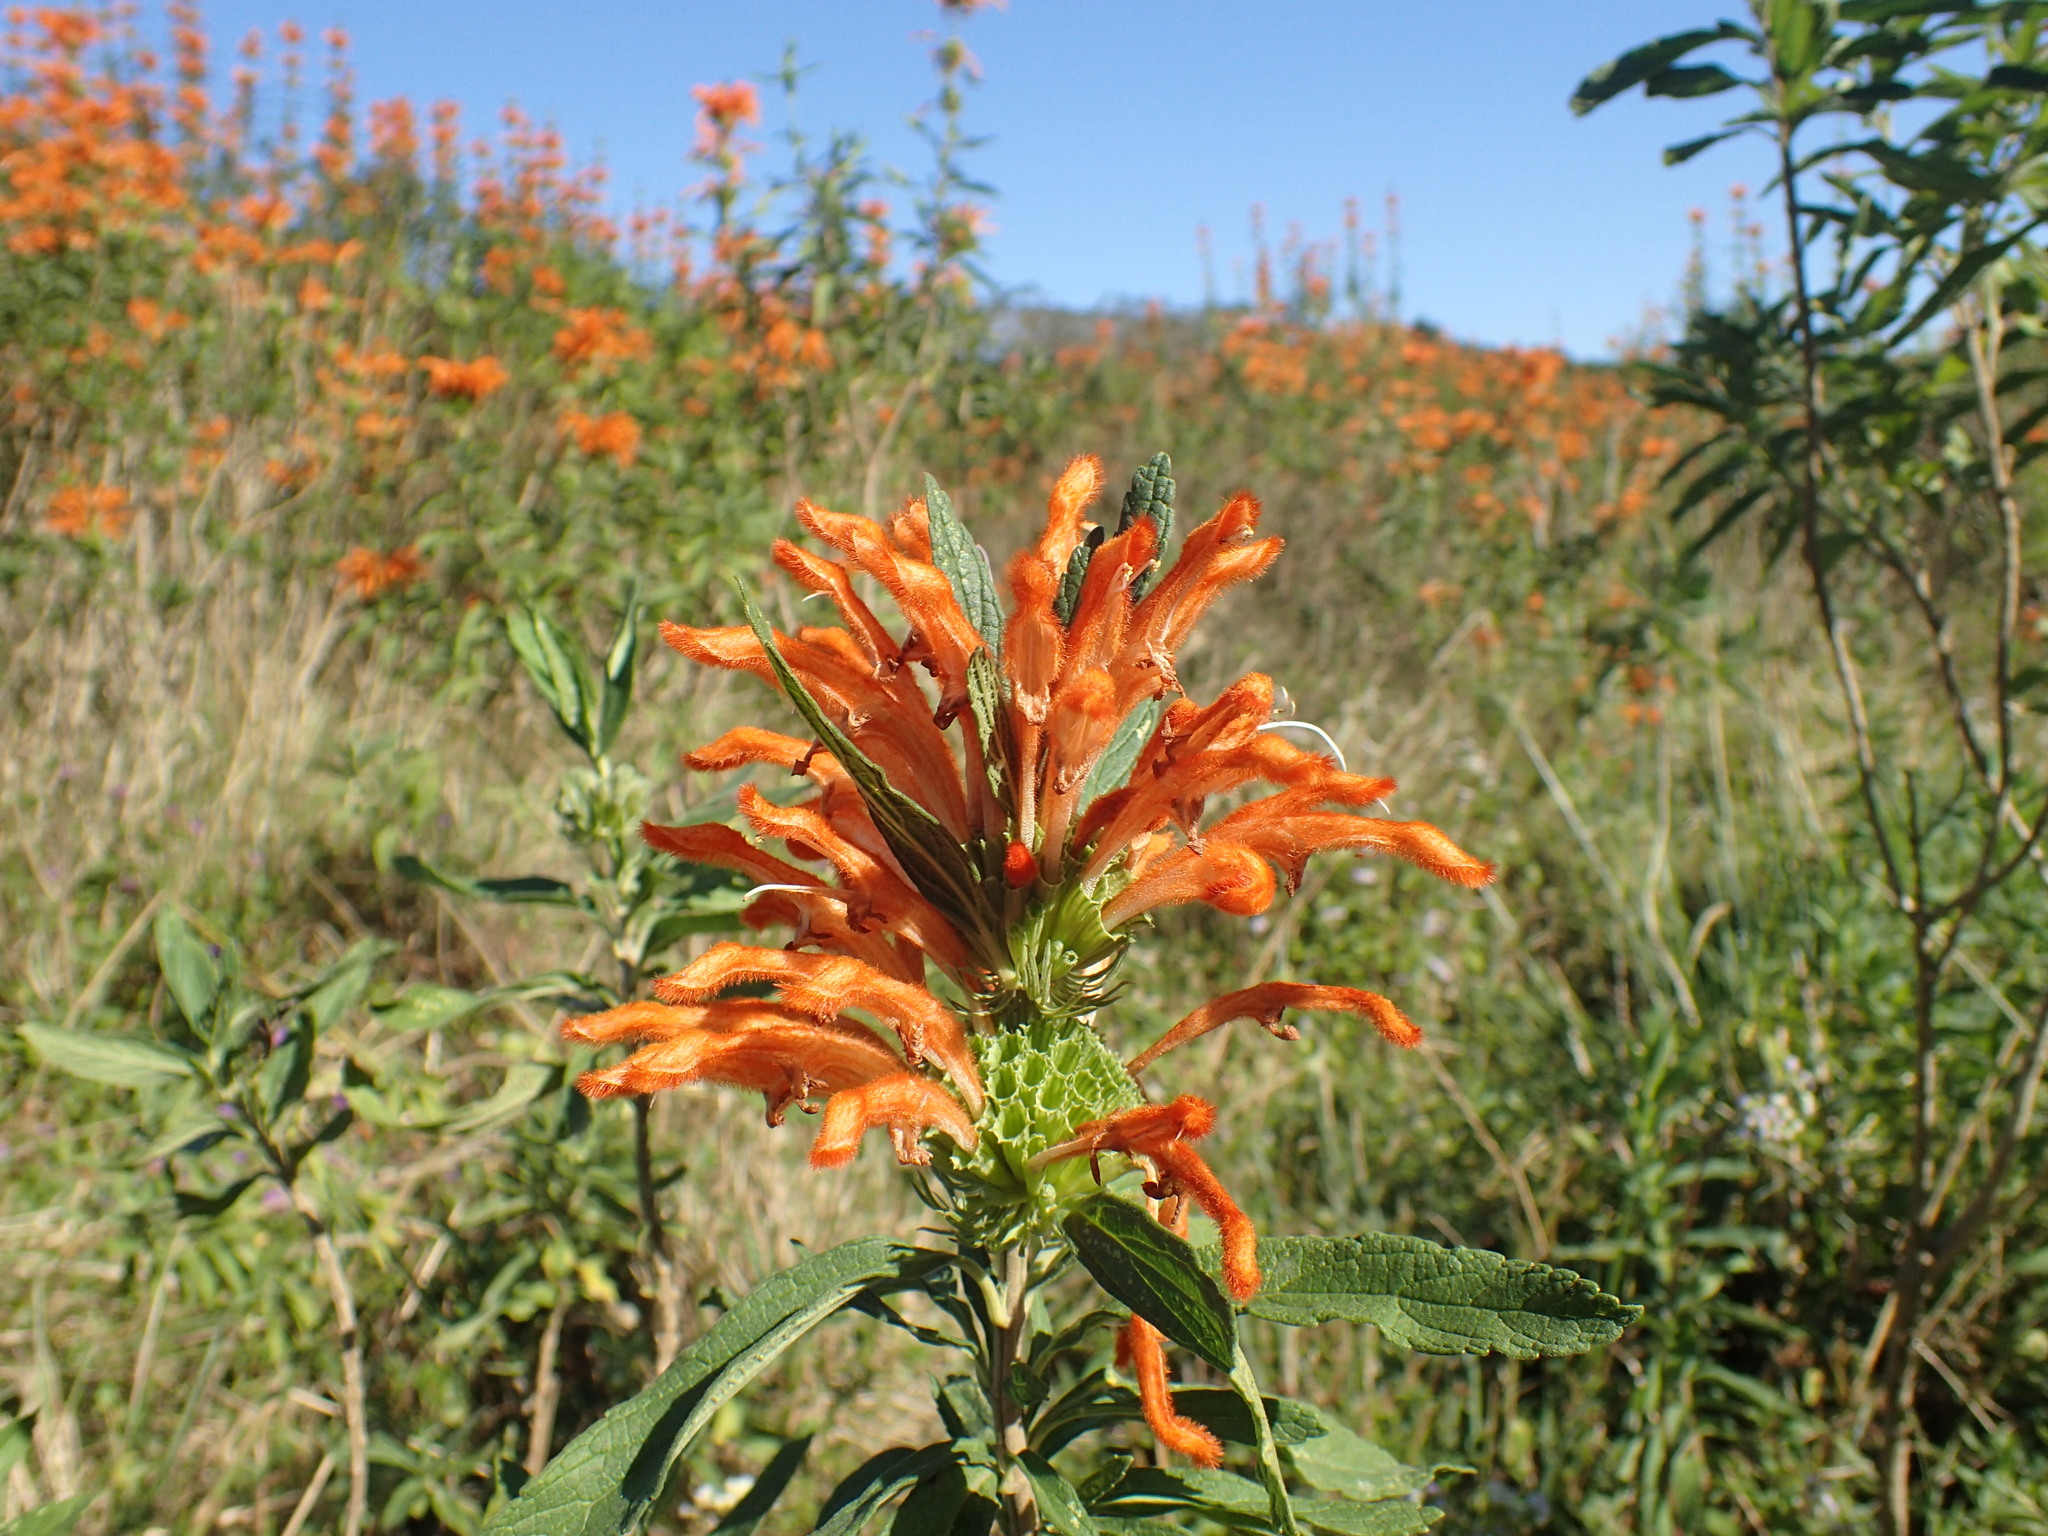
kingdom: Plantae
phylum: Tracheophyta
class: Magnoliopsida
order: Lamiales
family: Lamiaceae
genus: Leonotis
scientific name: Leonotis leonurus
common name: Lion's ear
